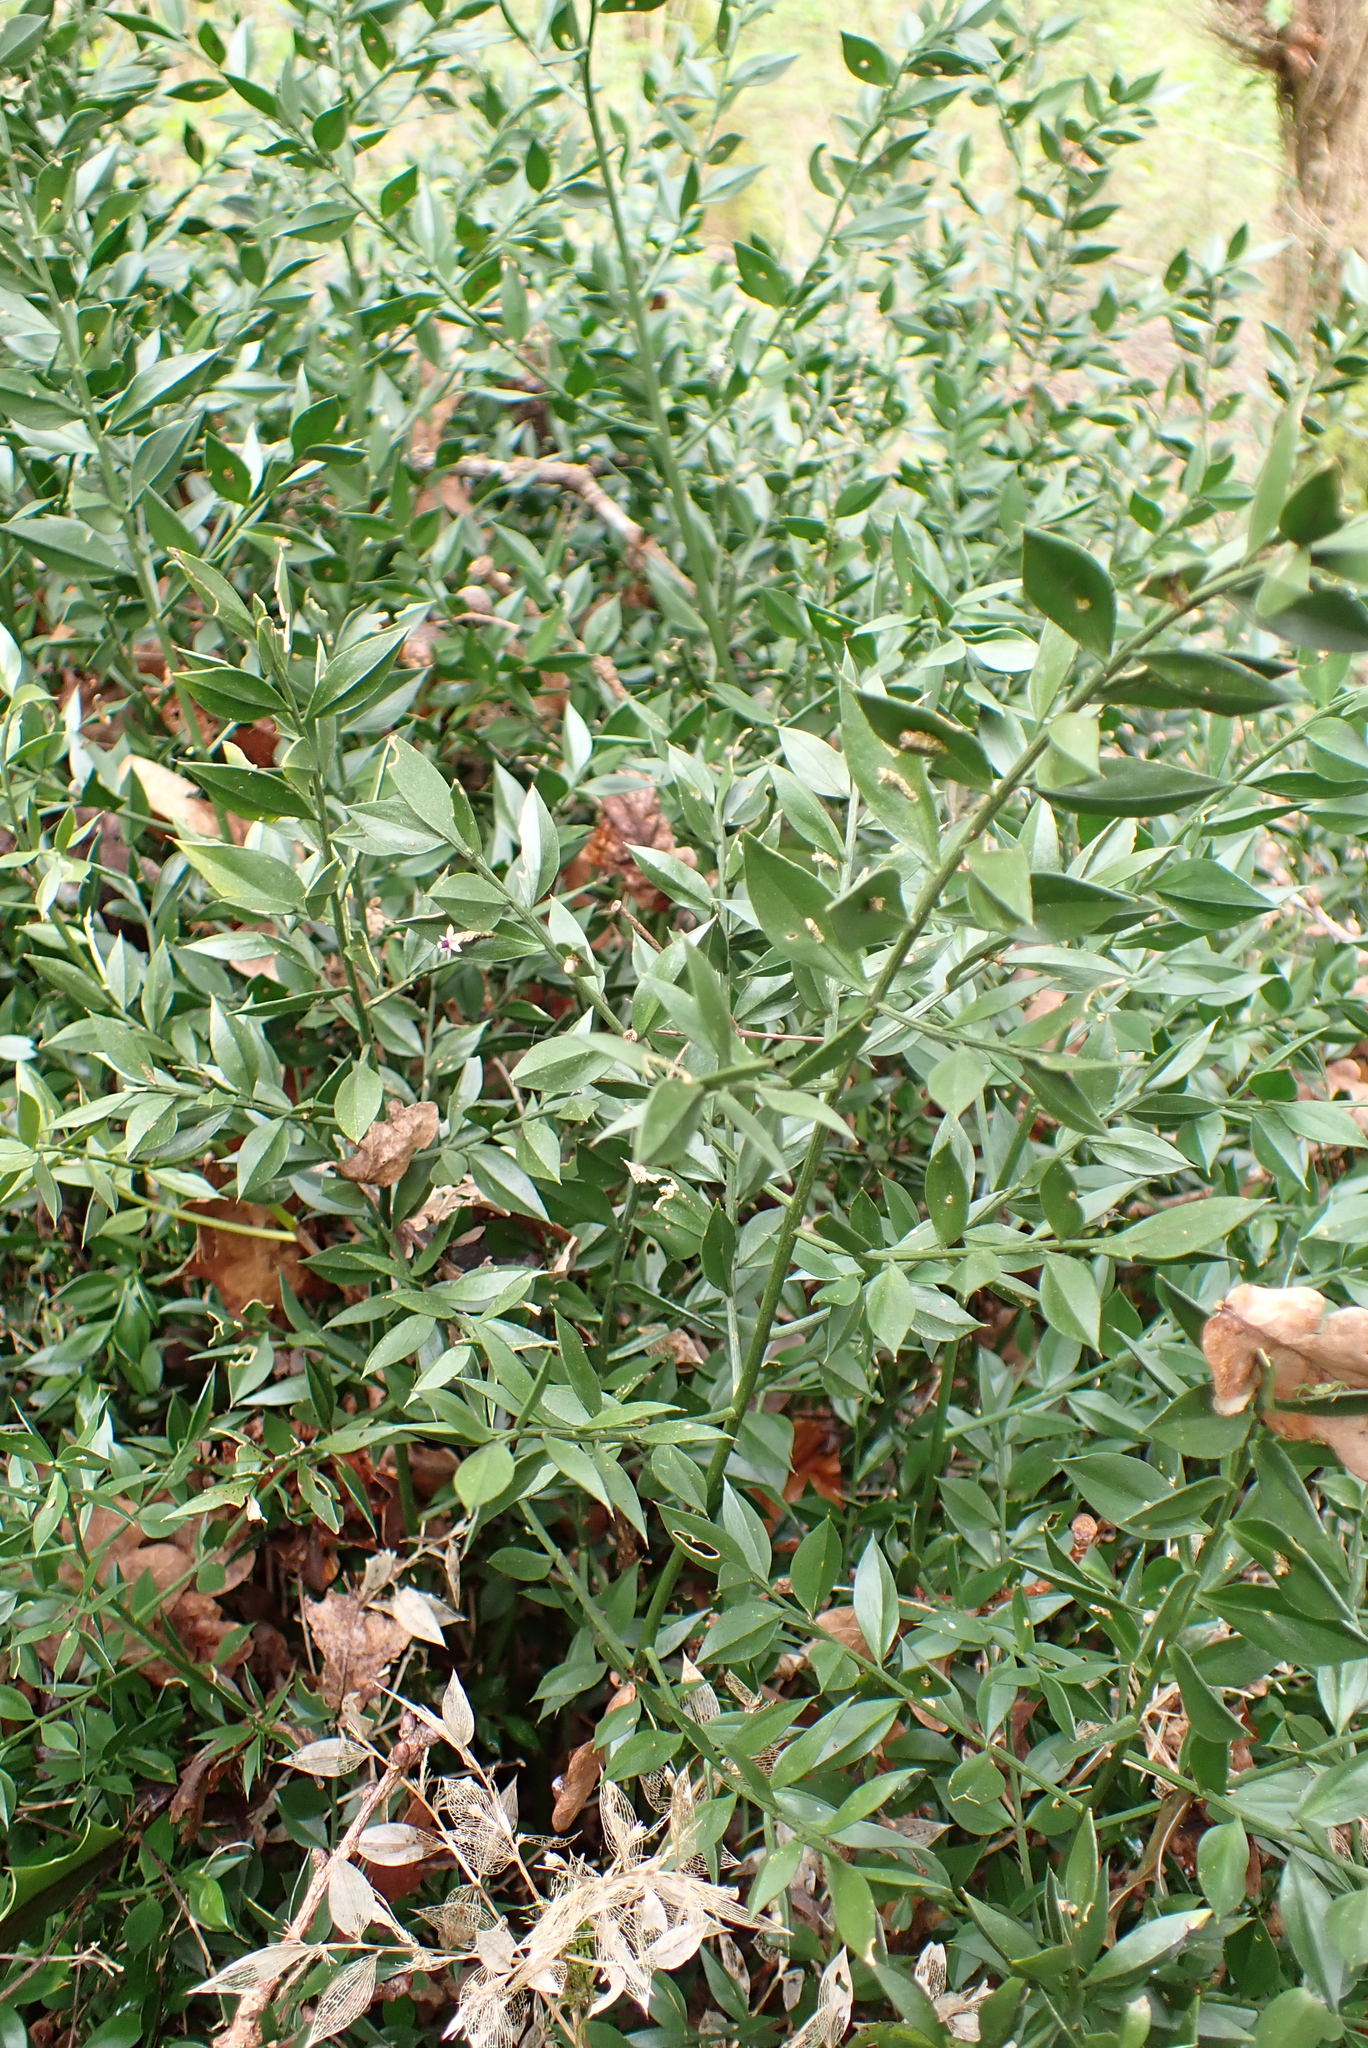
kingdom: Plantae
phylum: Tracheophyta
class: Liliopsida
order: Asparagales
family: Asparagaceae
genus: Ruscus
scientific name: Ruscus aculeatus
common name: Butcher's-broom
